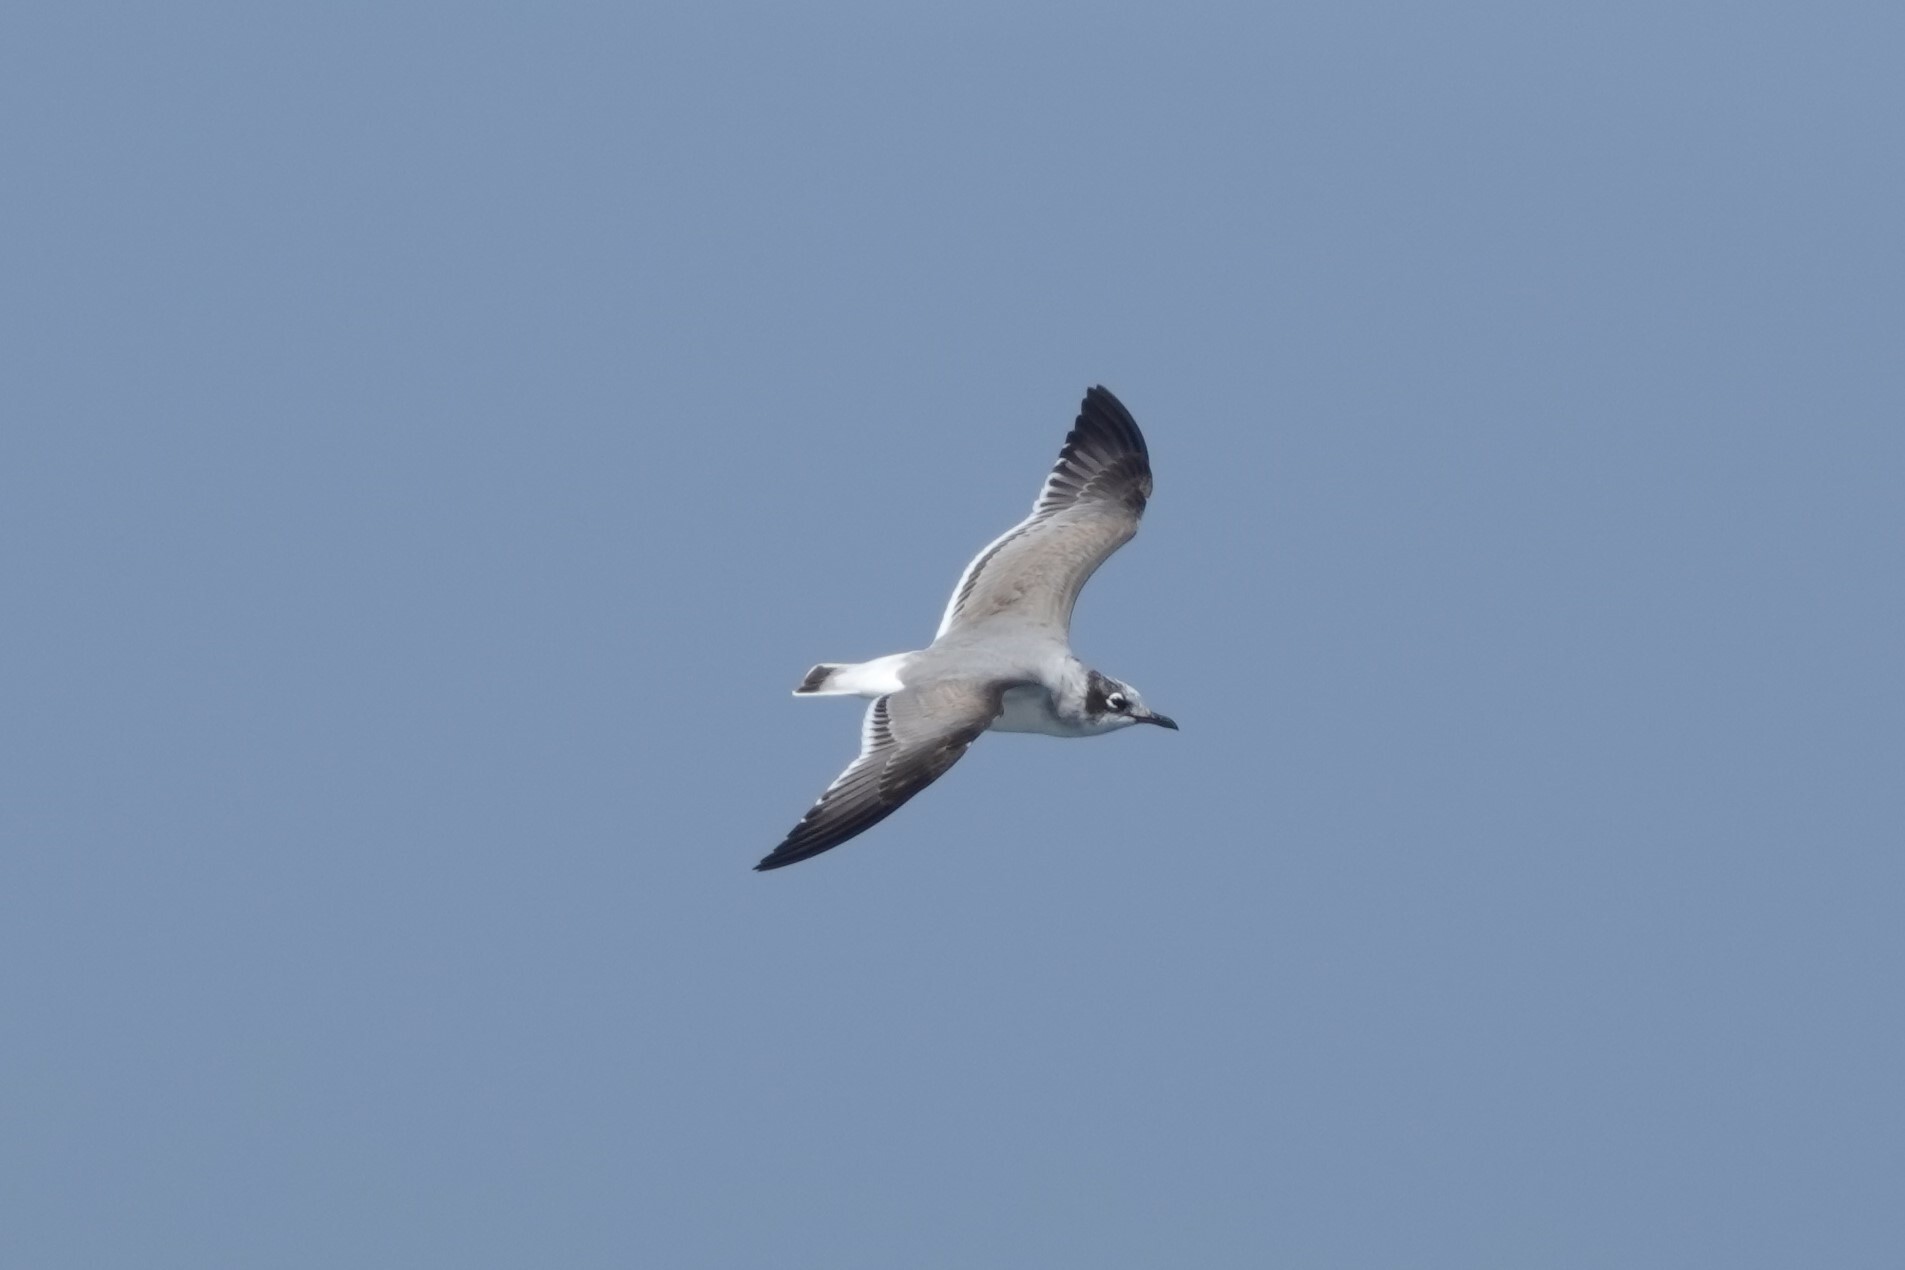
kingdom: Animalia
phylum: Chordata
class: Aves
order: Charadriiformes
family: Laridae
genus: Leucophaeus
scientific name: Leucophaeus pipixcan
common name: Franklin's gull
